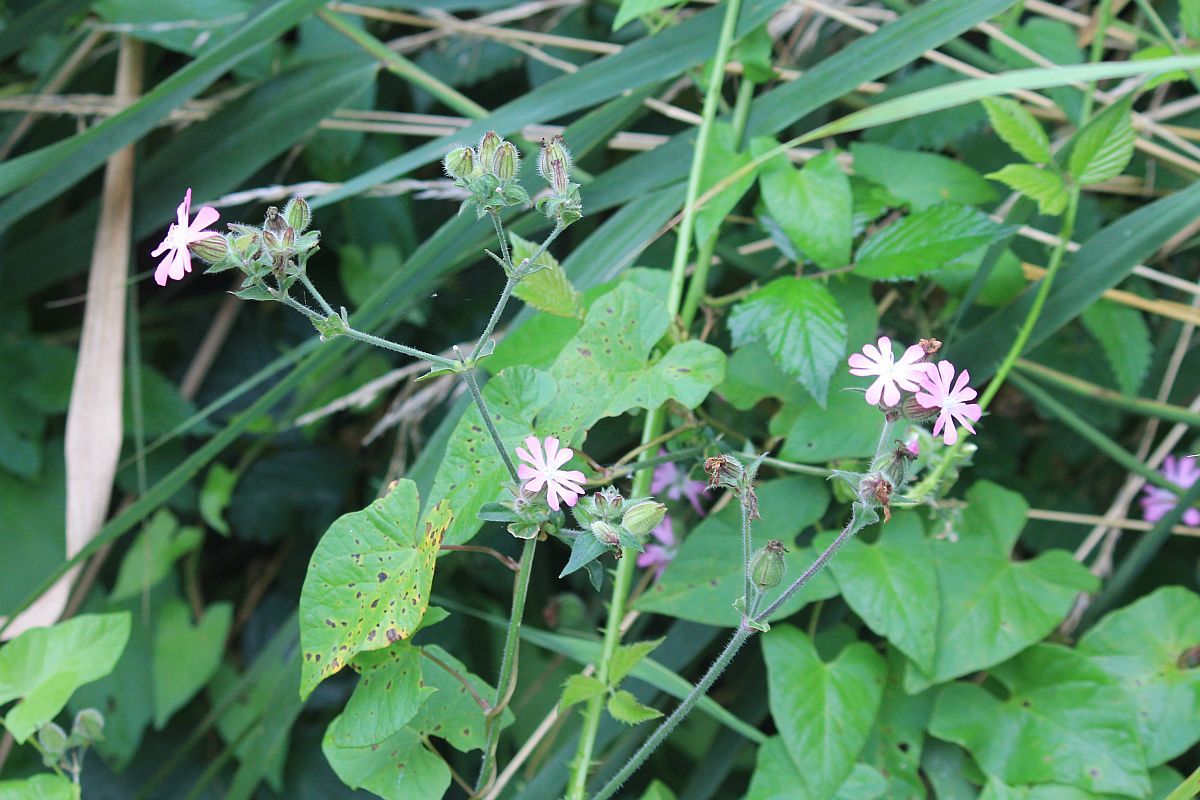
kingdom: Plantae
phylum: Tracheophyta
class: Magnoliopsida
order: Caryophyllales
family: Caryophyllaceae
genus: Silene
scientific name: Silene dioica
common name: Red campion
